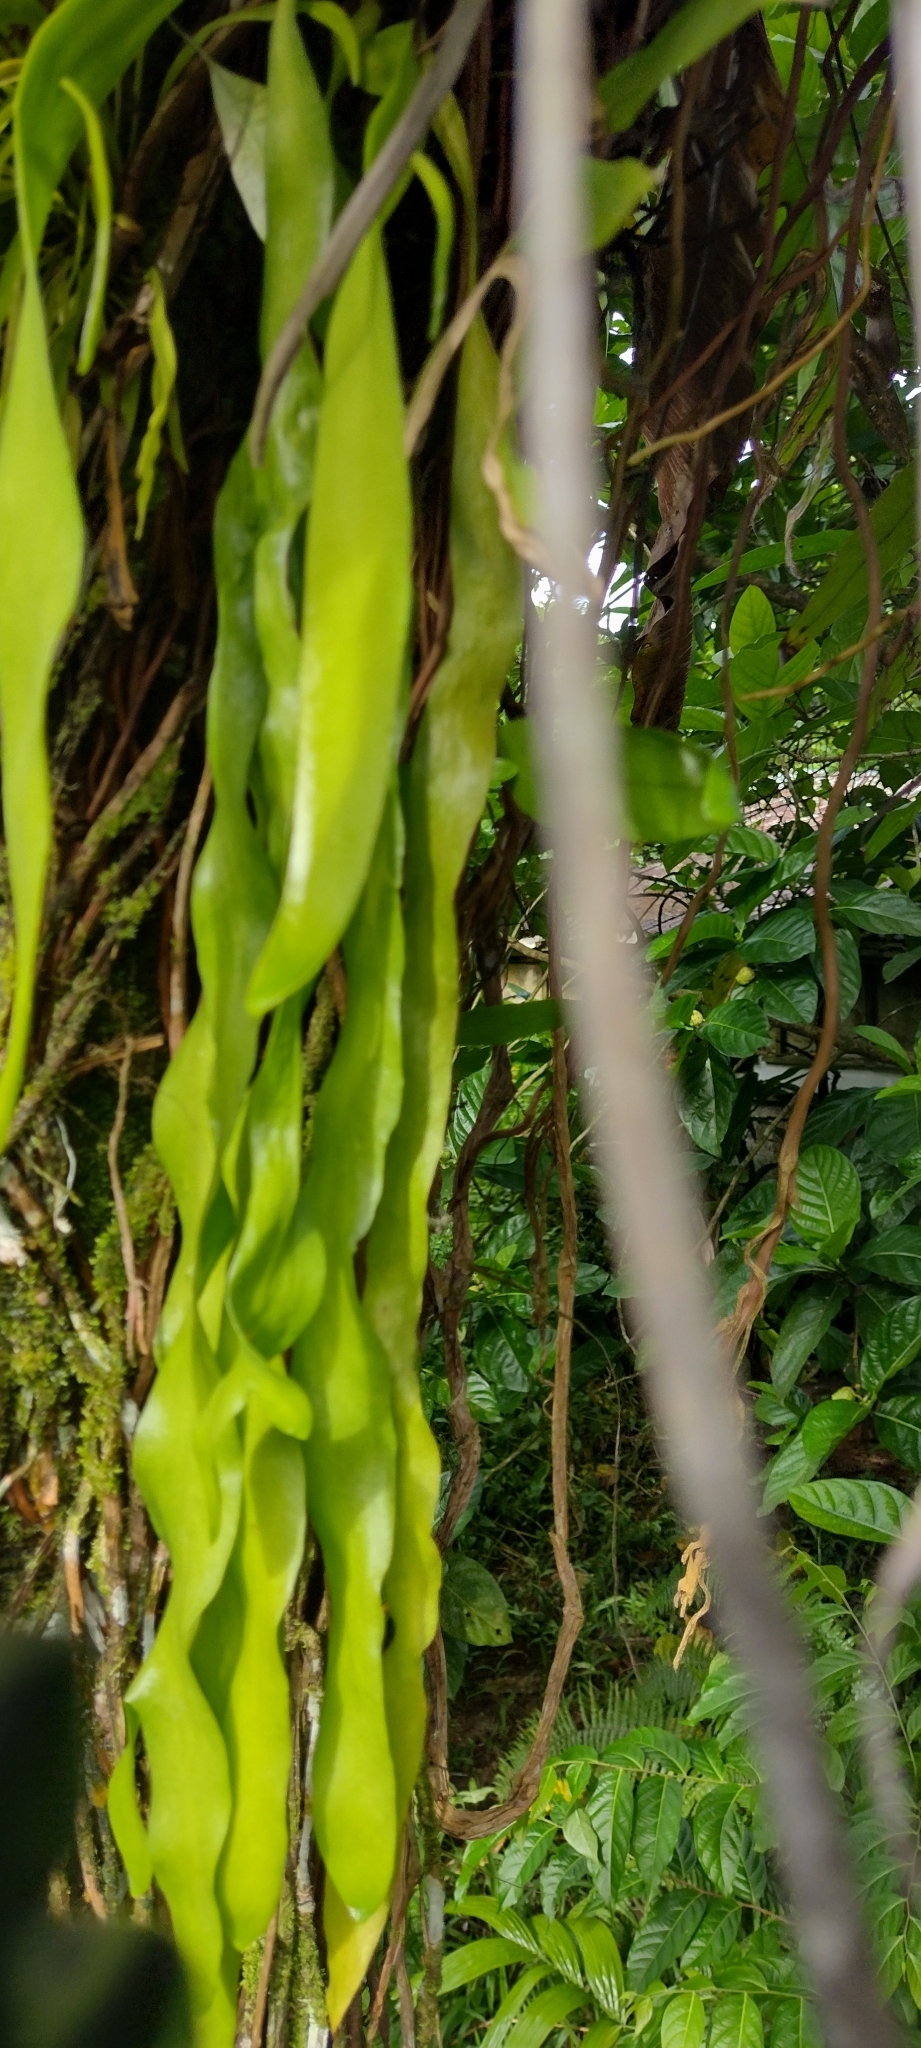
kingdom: Plantae
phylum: Tracheophyta
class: Polypodiopsida
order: Ophioglossales
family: Ophioglossaceae
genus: Ophioderma
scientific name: Ophioderma pendulum
